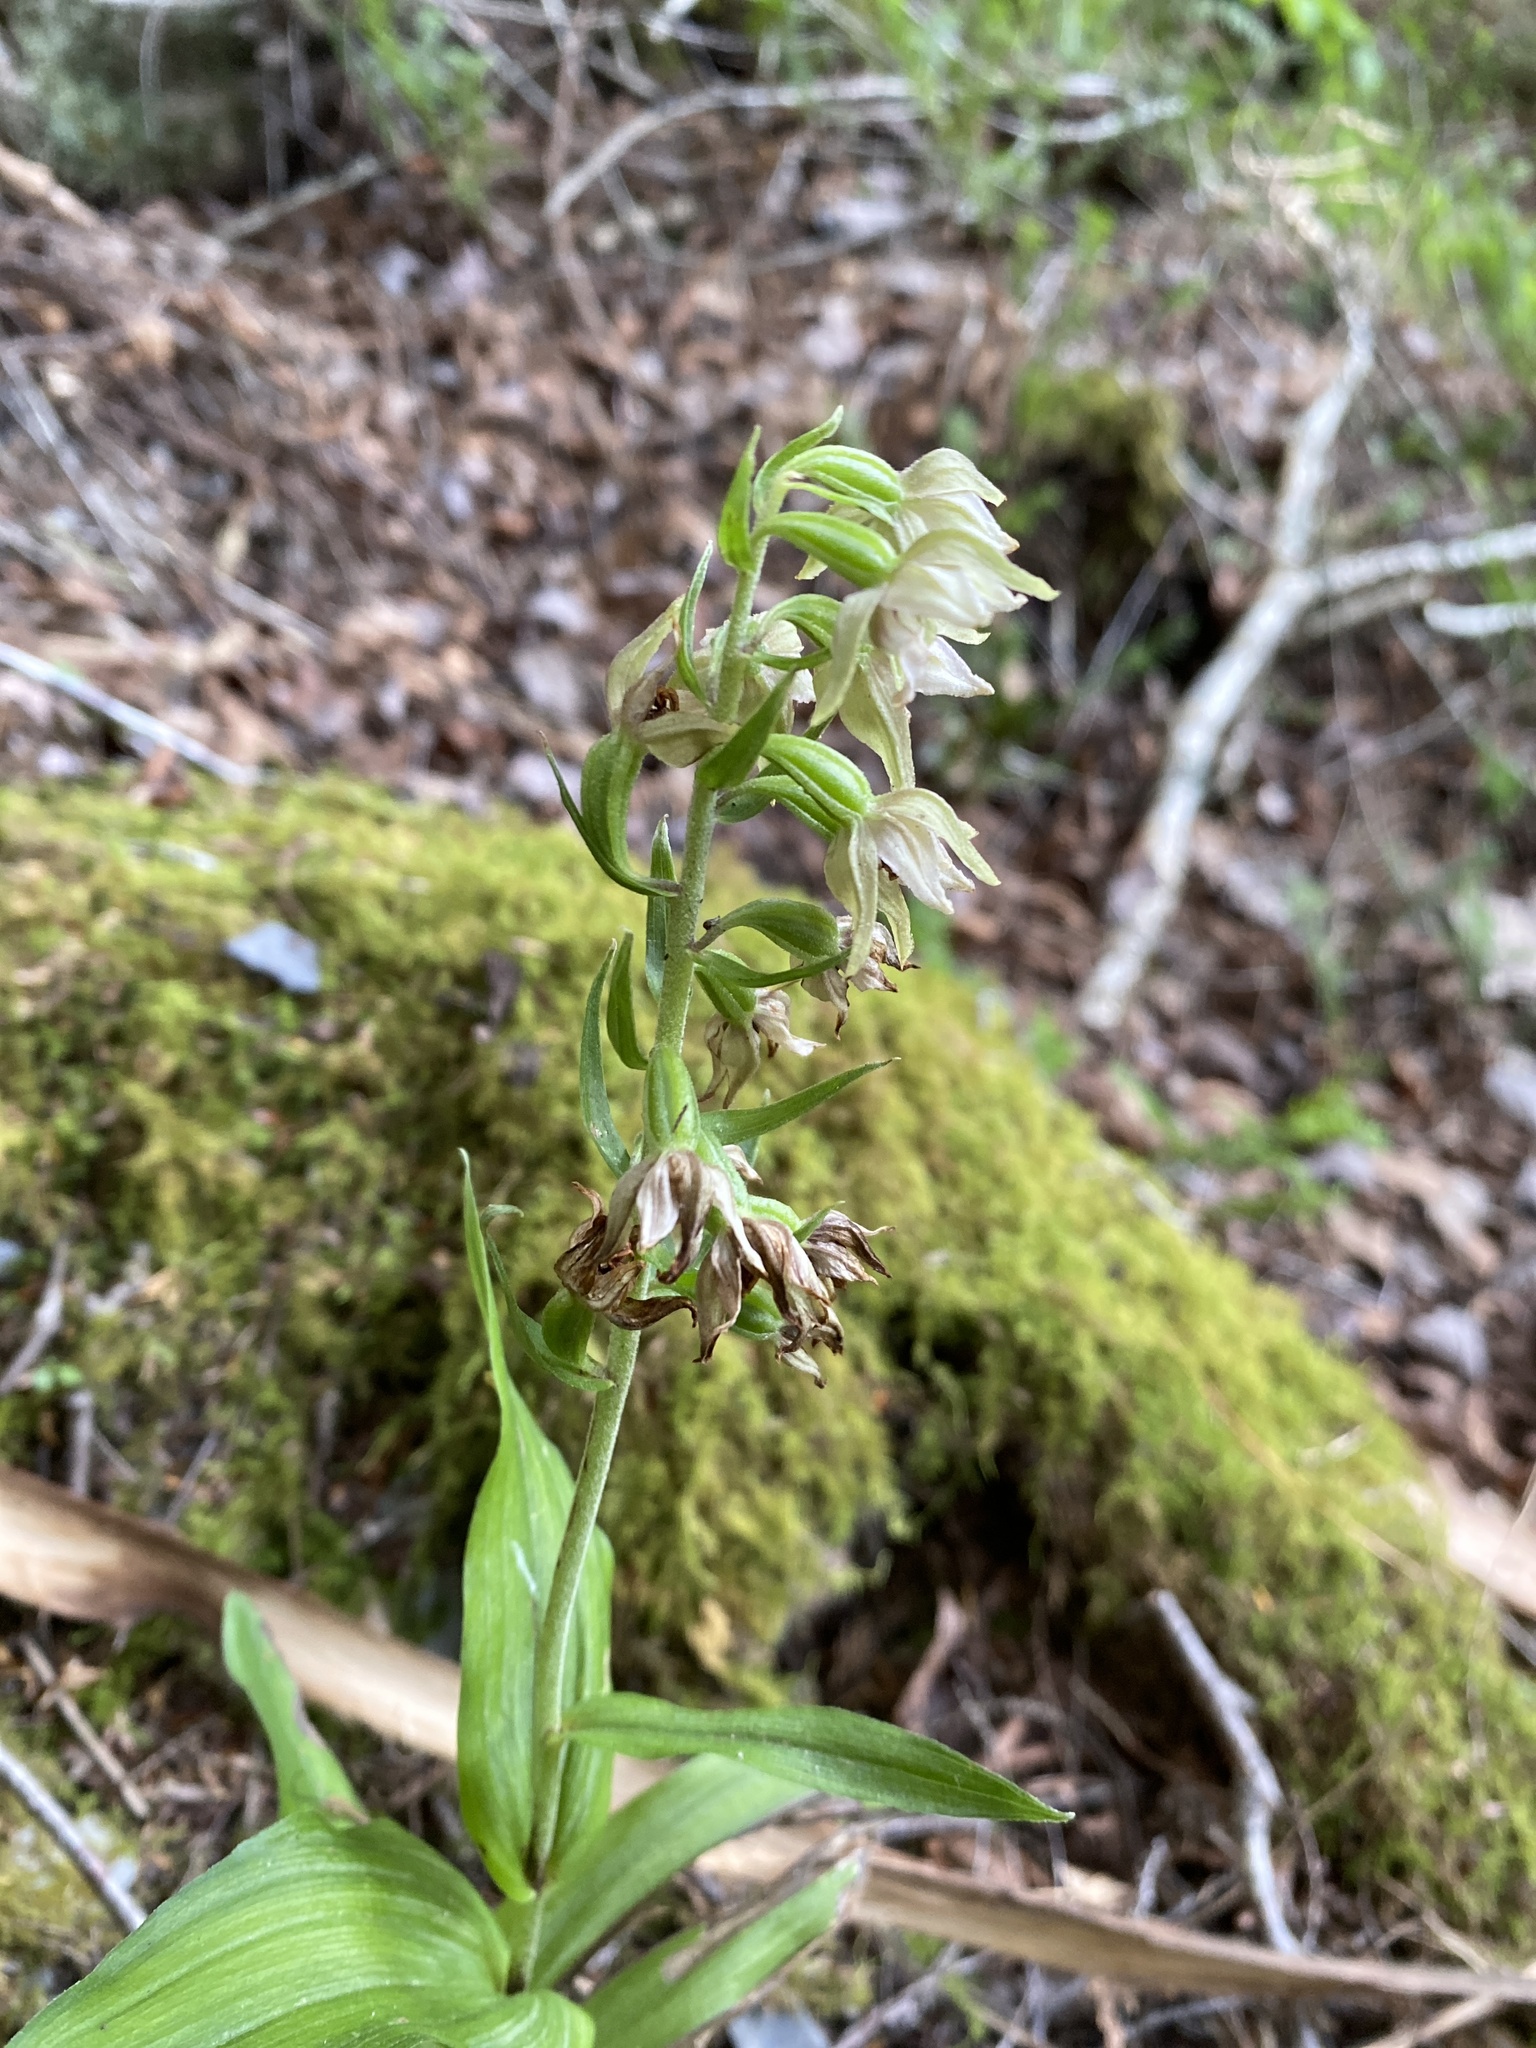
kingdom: Plantae
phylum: Tracheophyta
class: Liliopsida
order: Asparagales
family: Orchidaceae
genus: Epipactis
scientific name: Epipactis helleborine
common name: Broad-leaved helleborine
